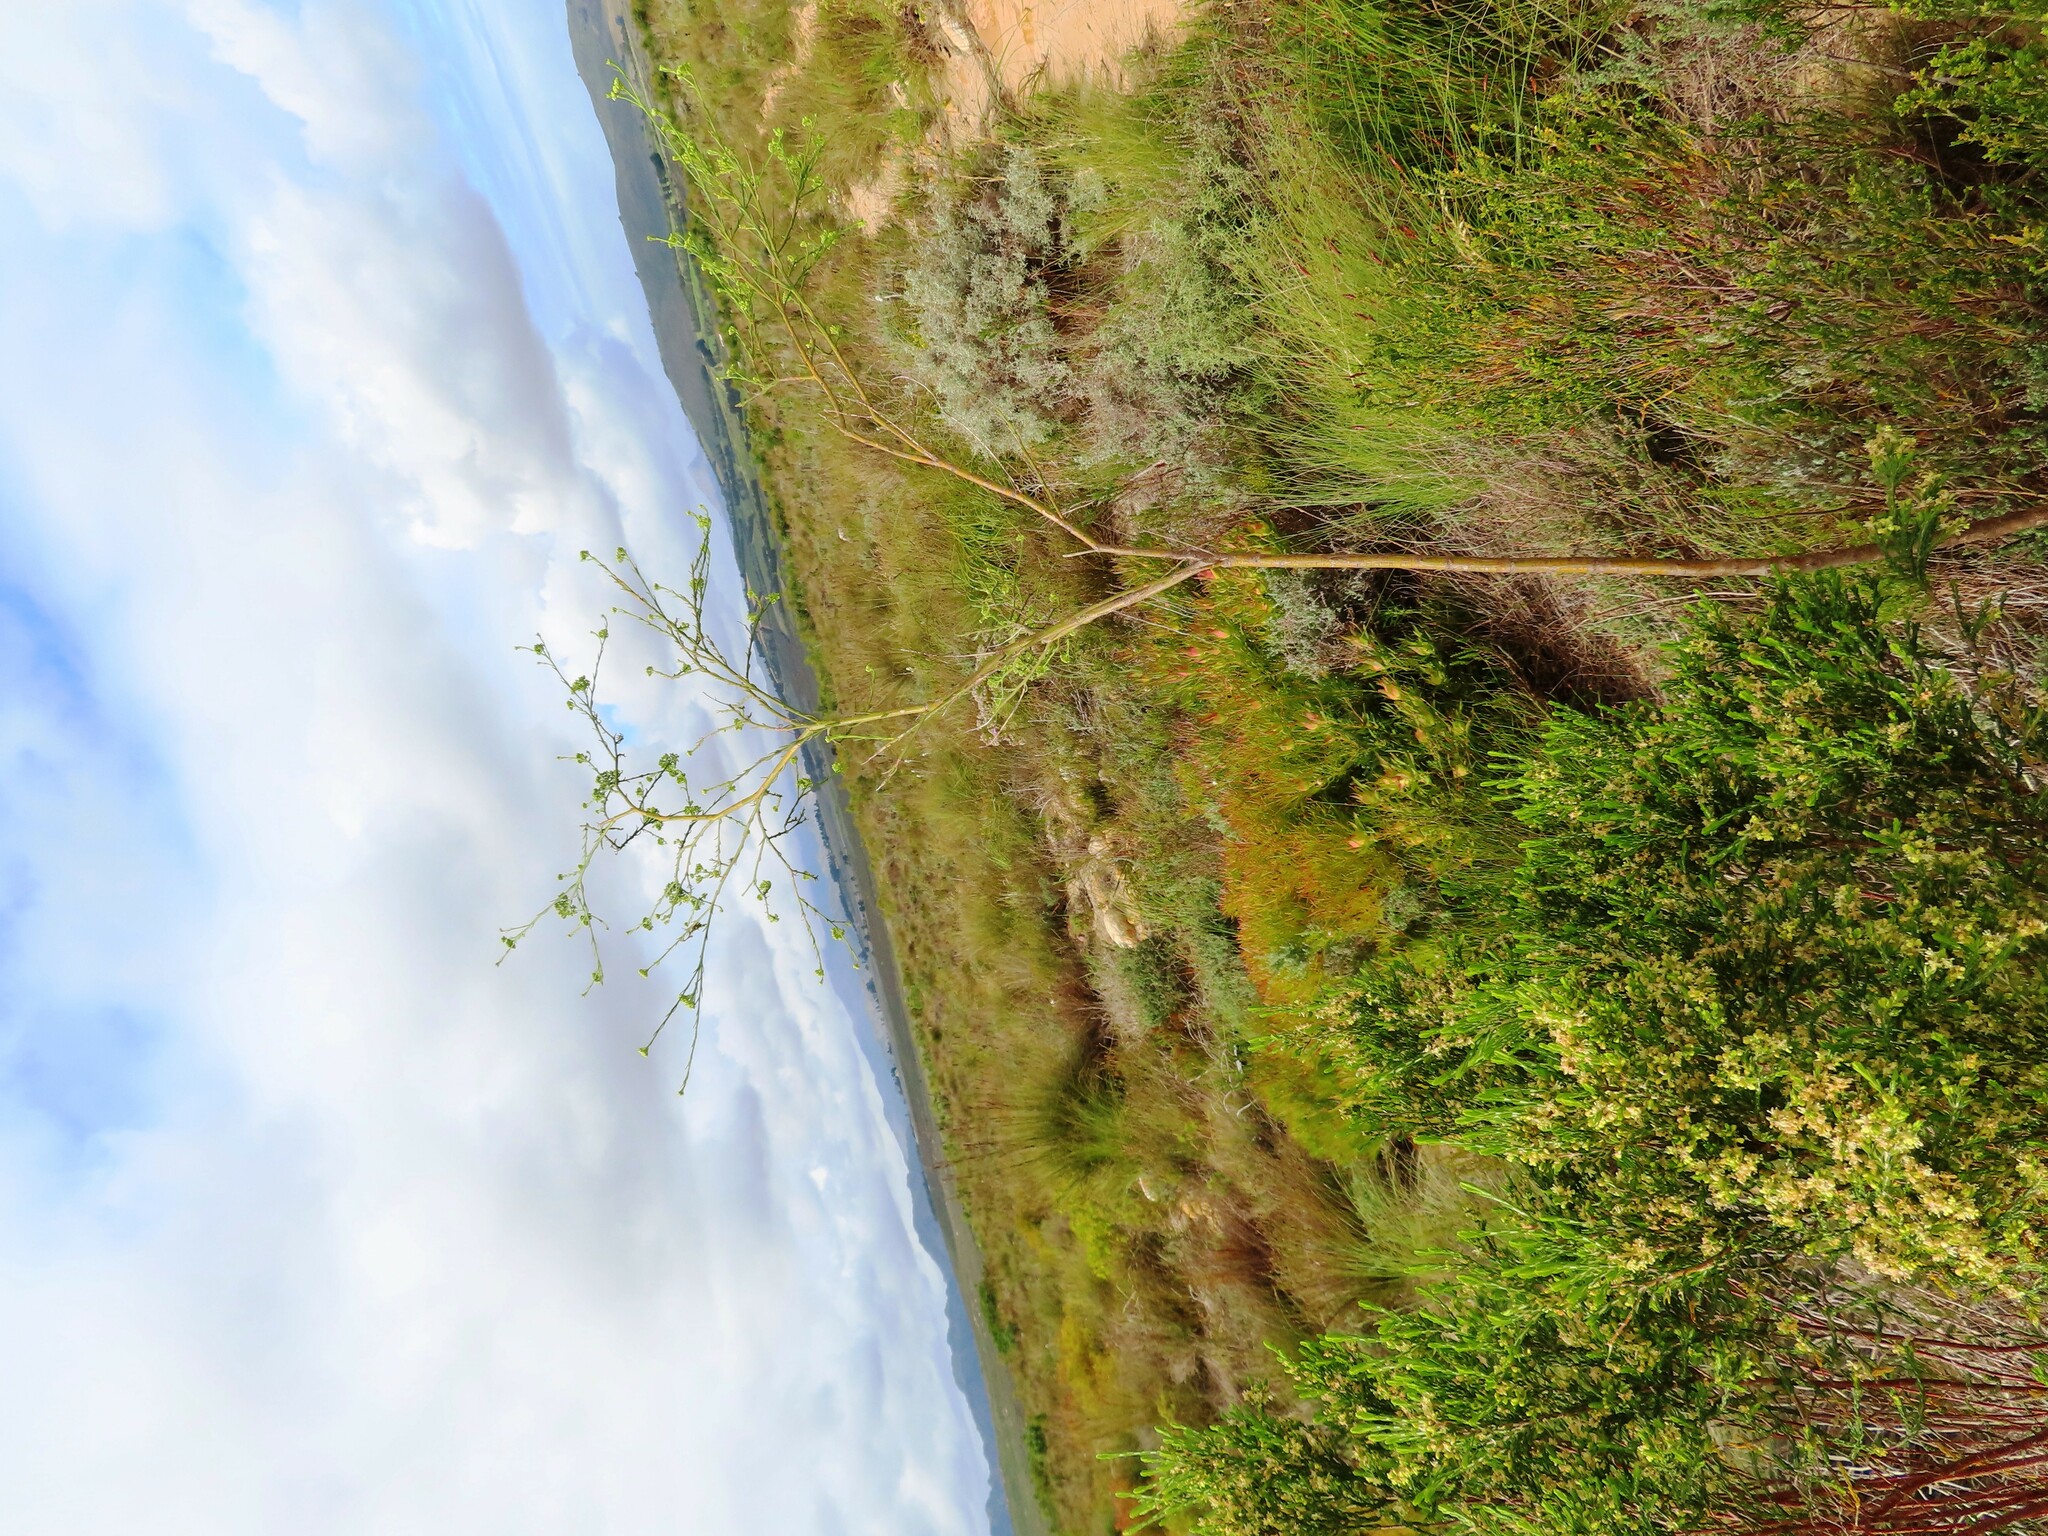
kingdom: Plantae
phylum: Tracheophyta
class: Magnoliopsida
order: Santalales
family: Thesiaceae
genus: Thesium
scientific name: Thesium strictum
